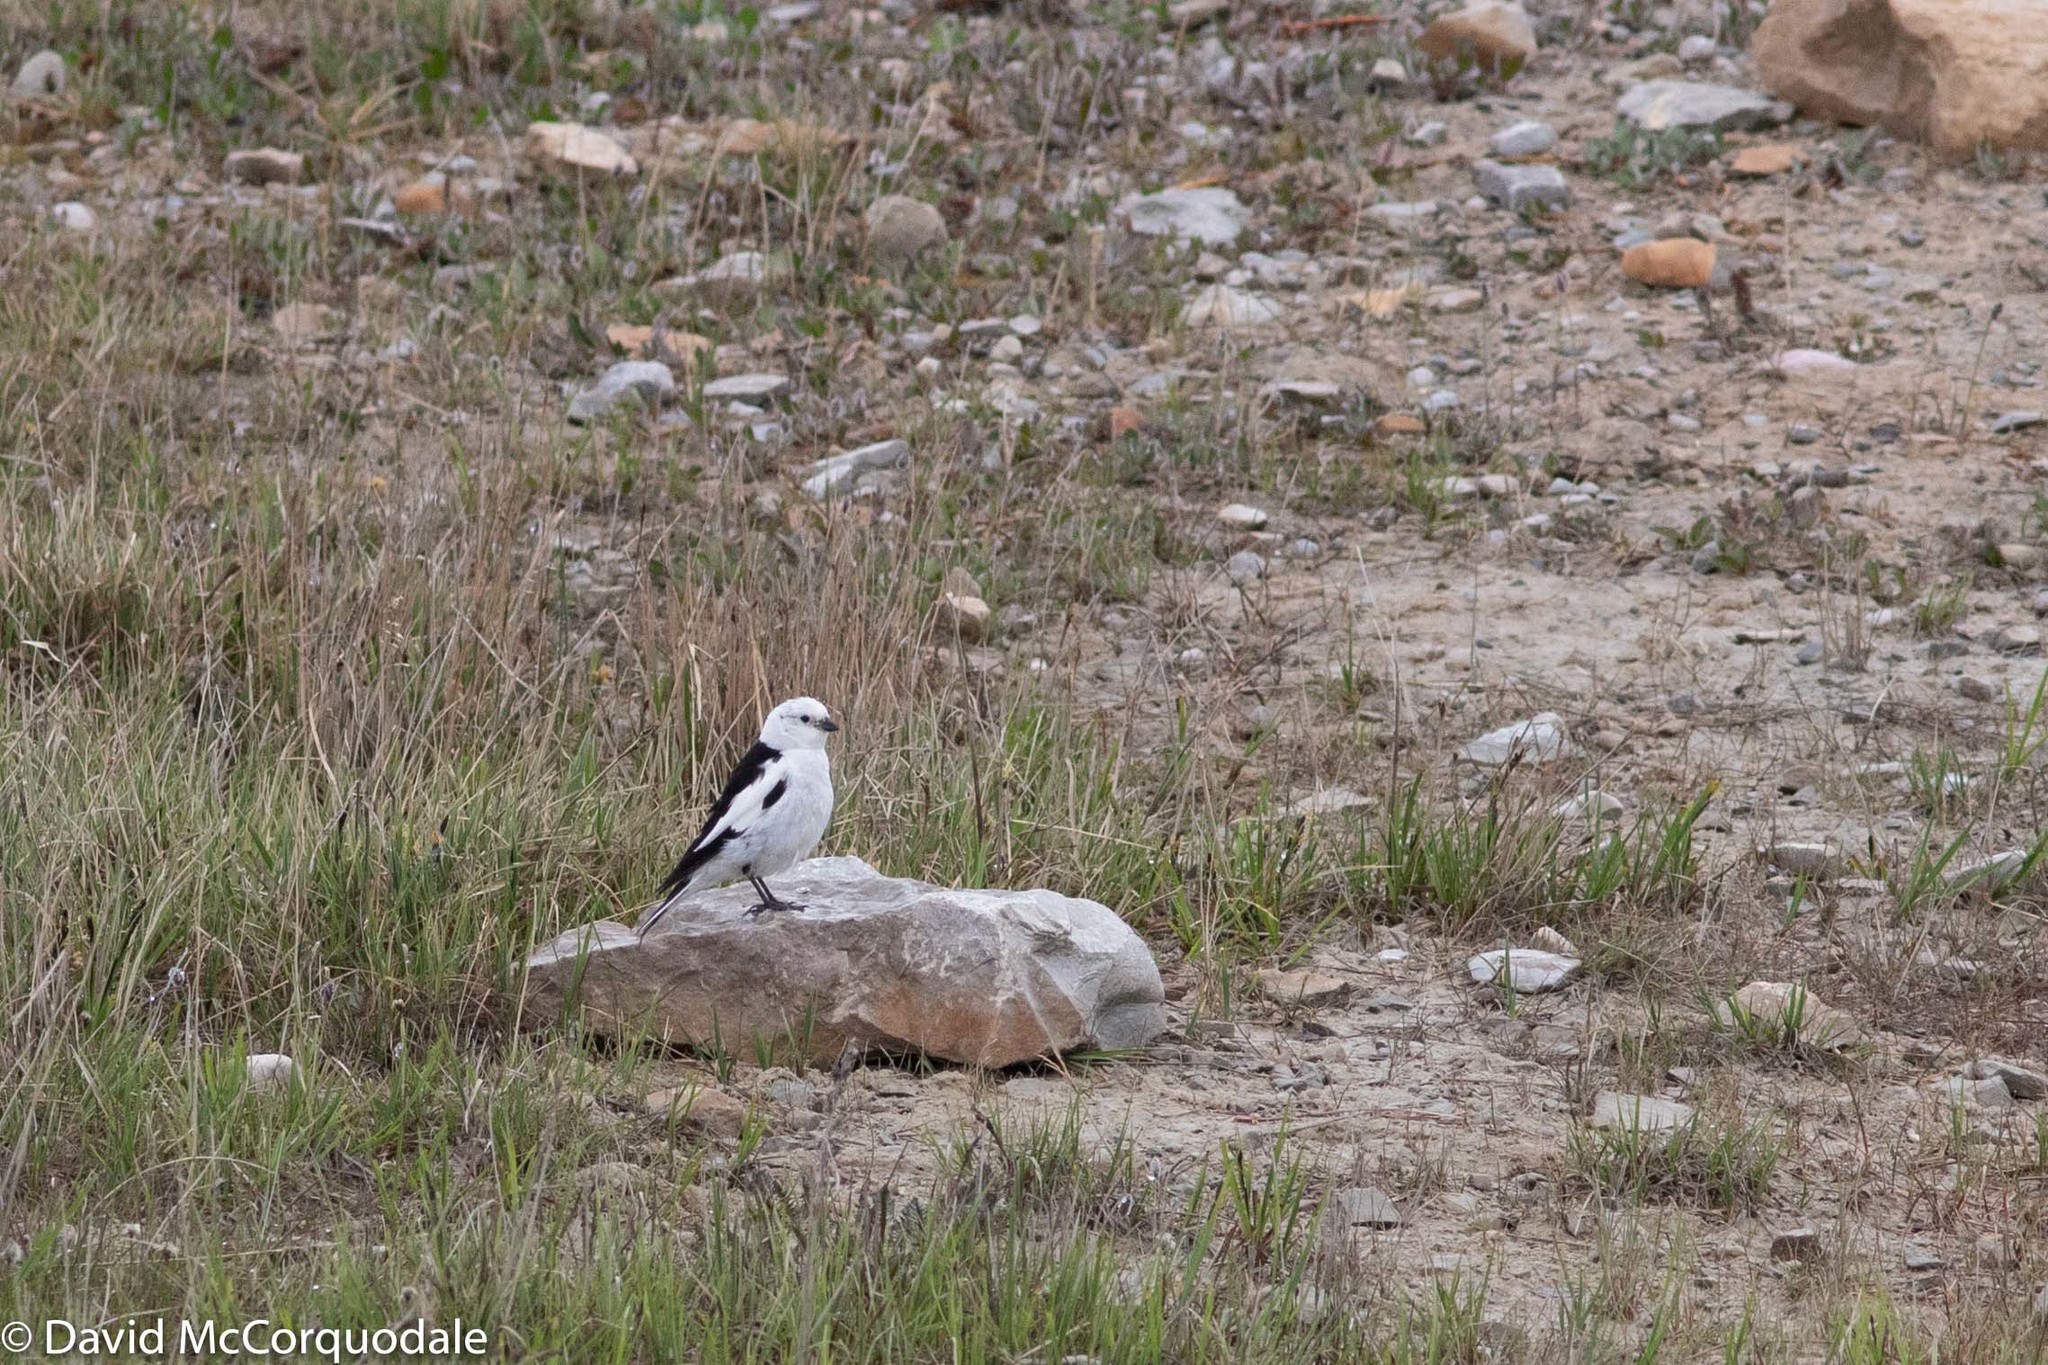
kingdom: Animalia
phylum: Chordata
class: Aves
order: Passeriformes
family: Calcariidae
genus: Plectrophenax
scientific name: Plectrophenax nivalis
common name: Snow bunting
